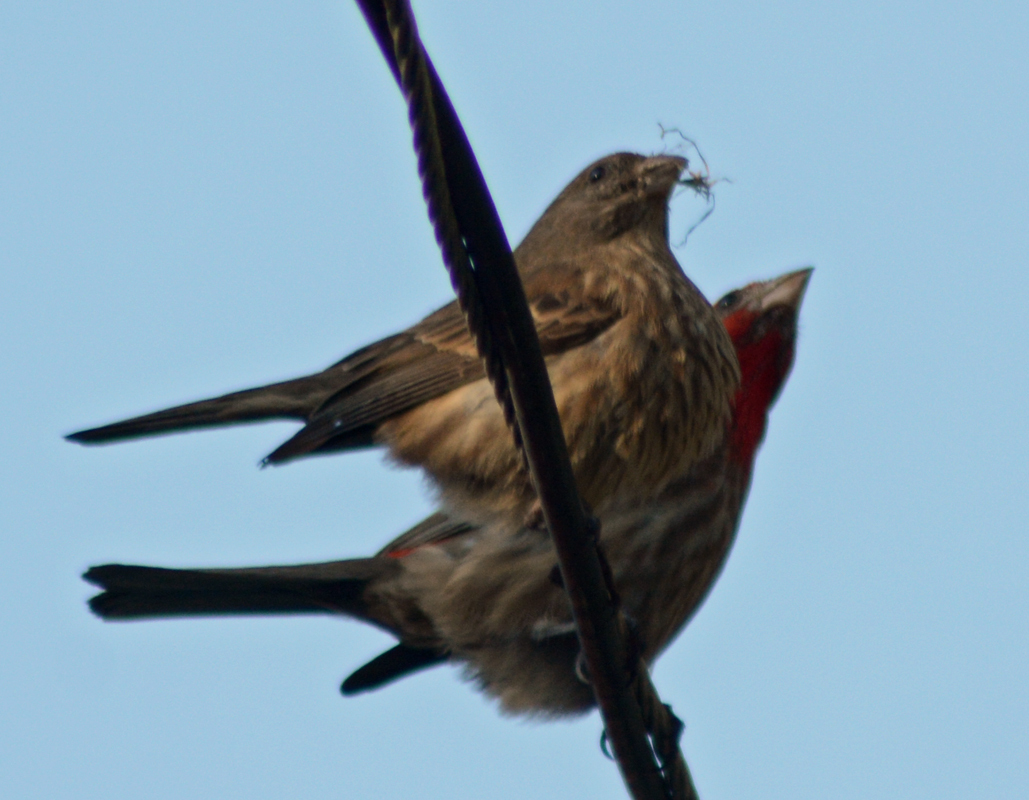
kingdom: Animalia
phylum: Chordata
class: Aves
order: Passeriformes
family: Fringillidae
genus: Haemorhous
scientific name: Haemorhous mexicanus
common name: House finch
